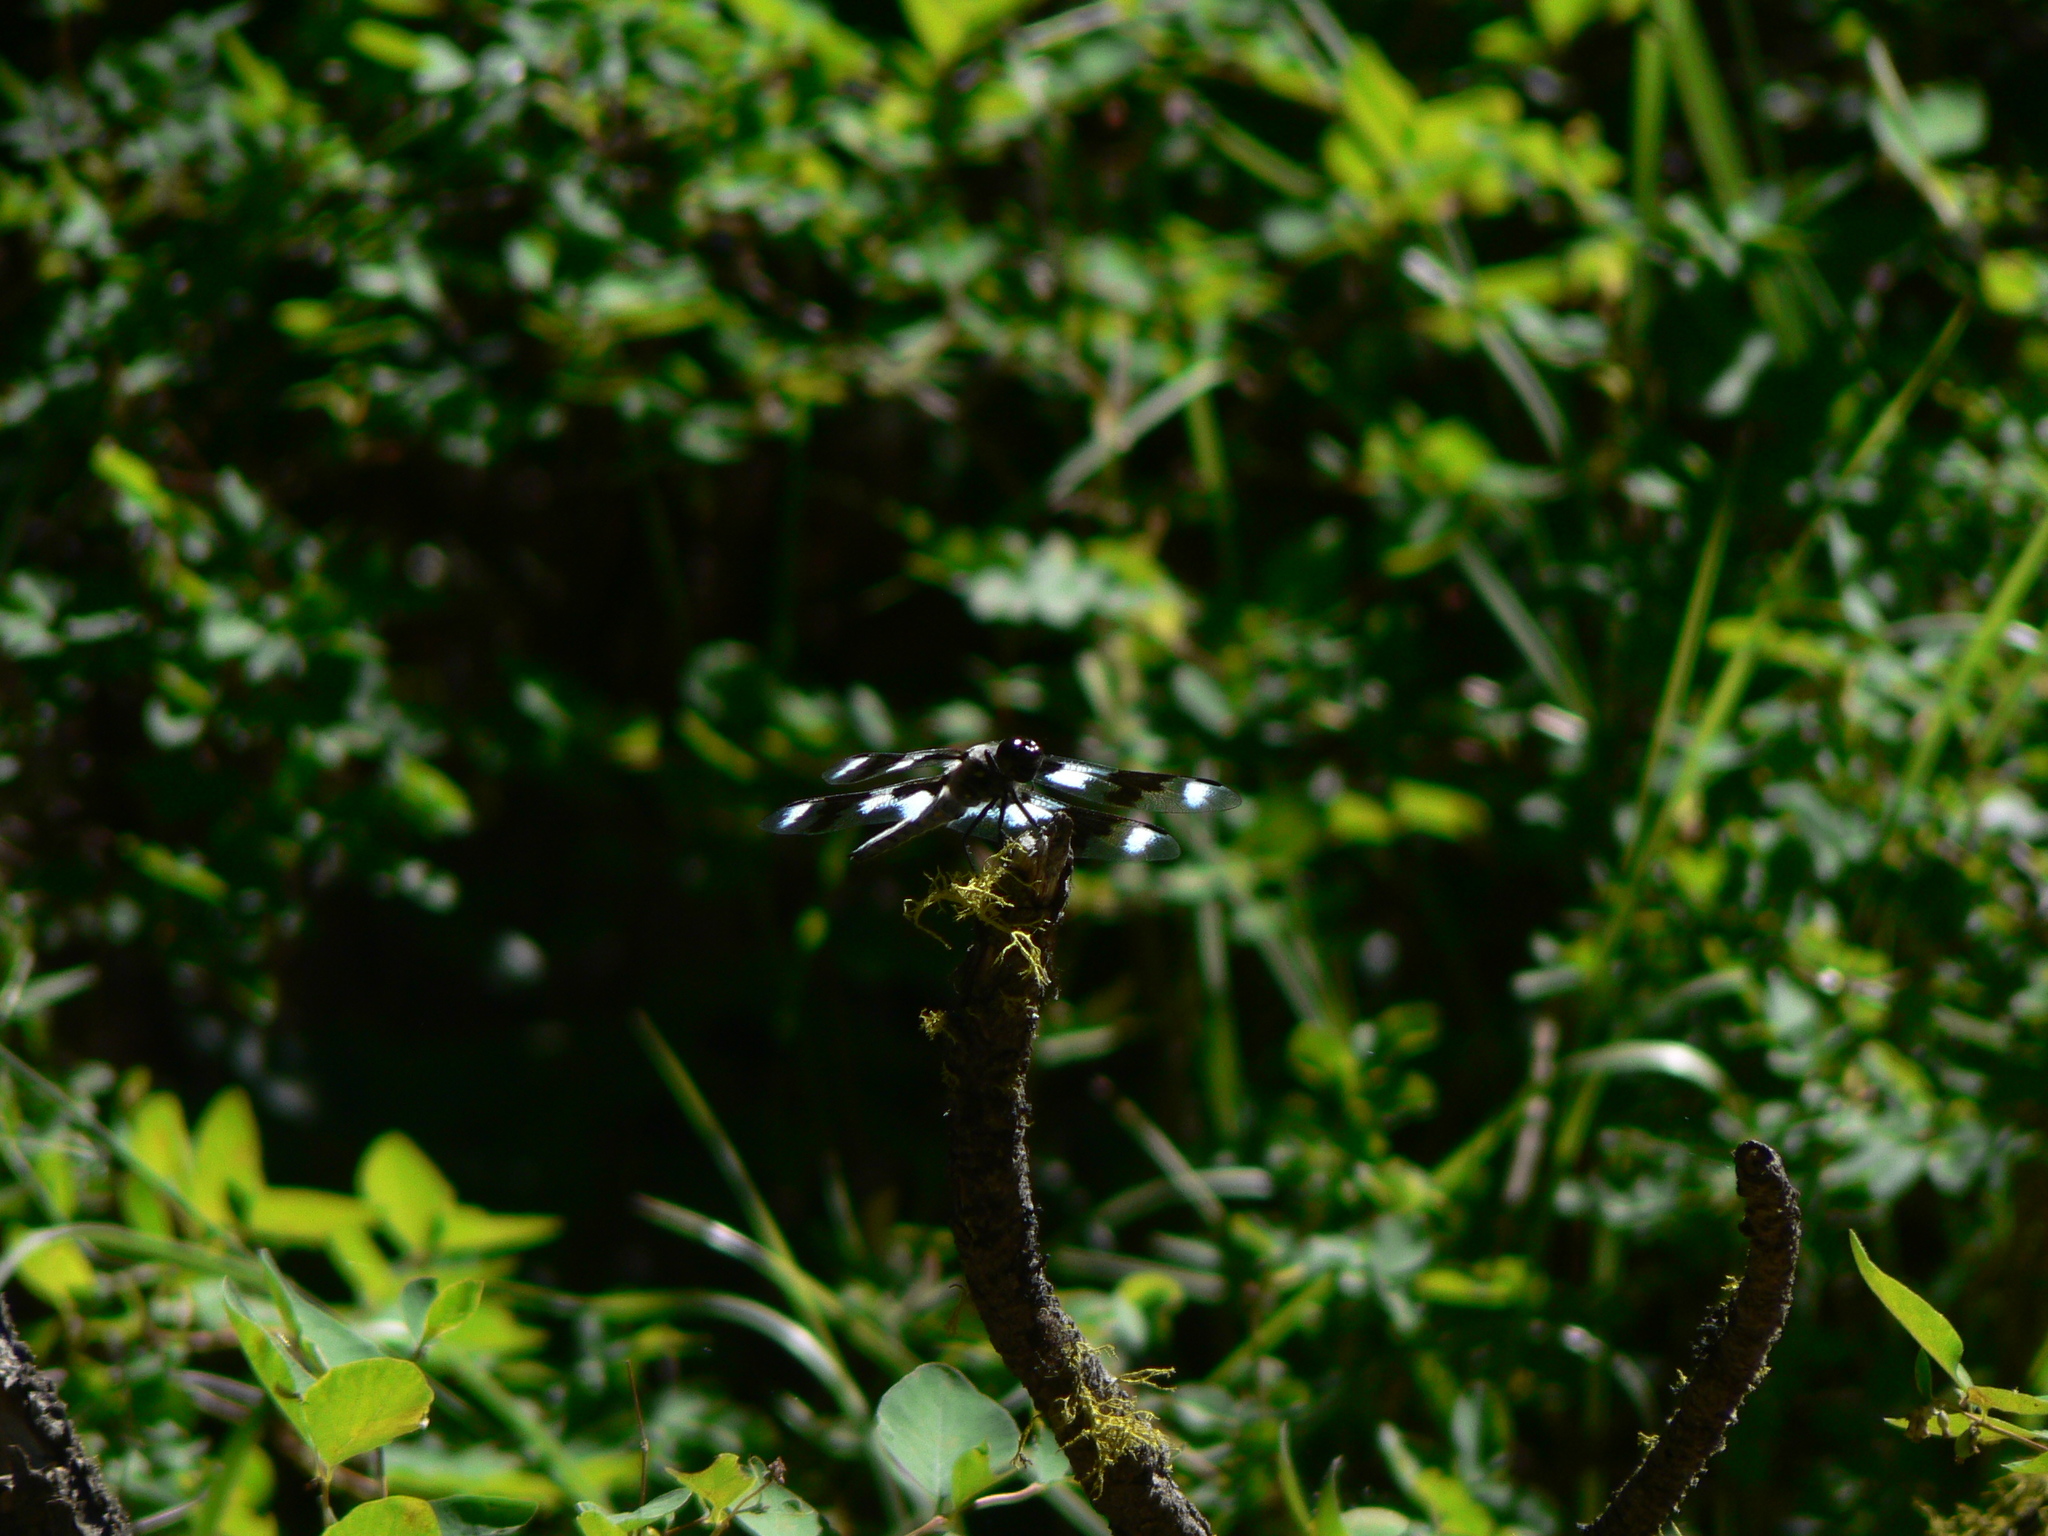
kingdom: Animalia
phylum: Arthropoda
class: Insecta
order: Odonata
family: Libellulidae
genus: Libellula
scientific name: Libellula forensis
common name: Eight-spotted skimmer
